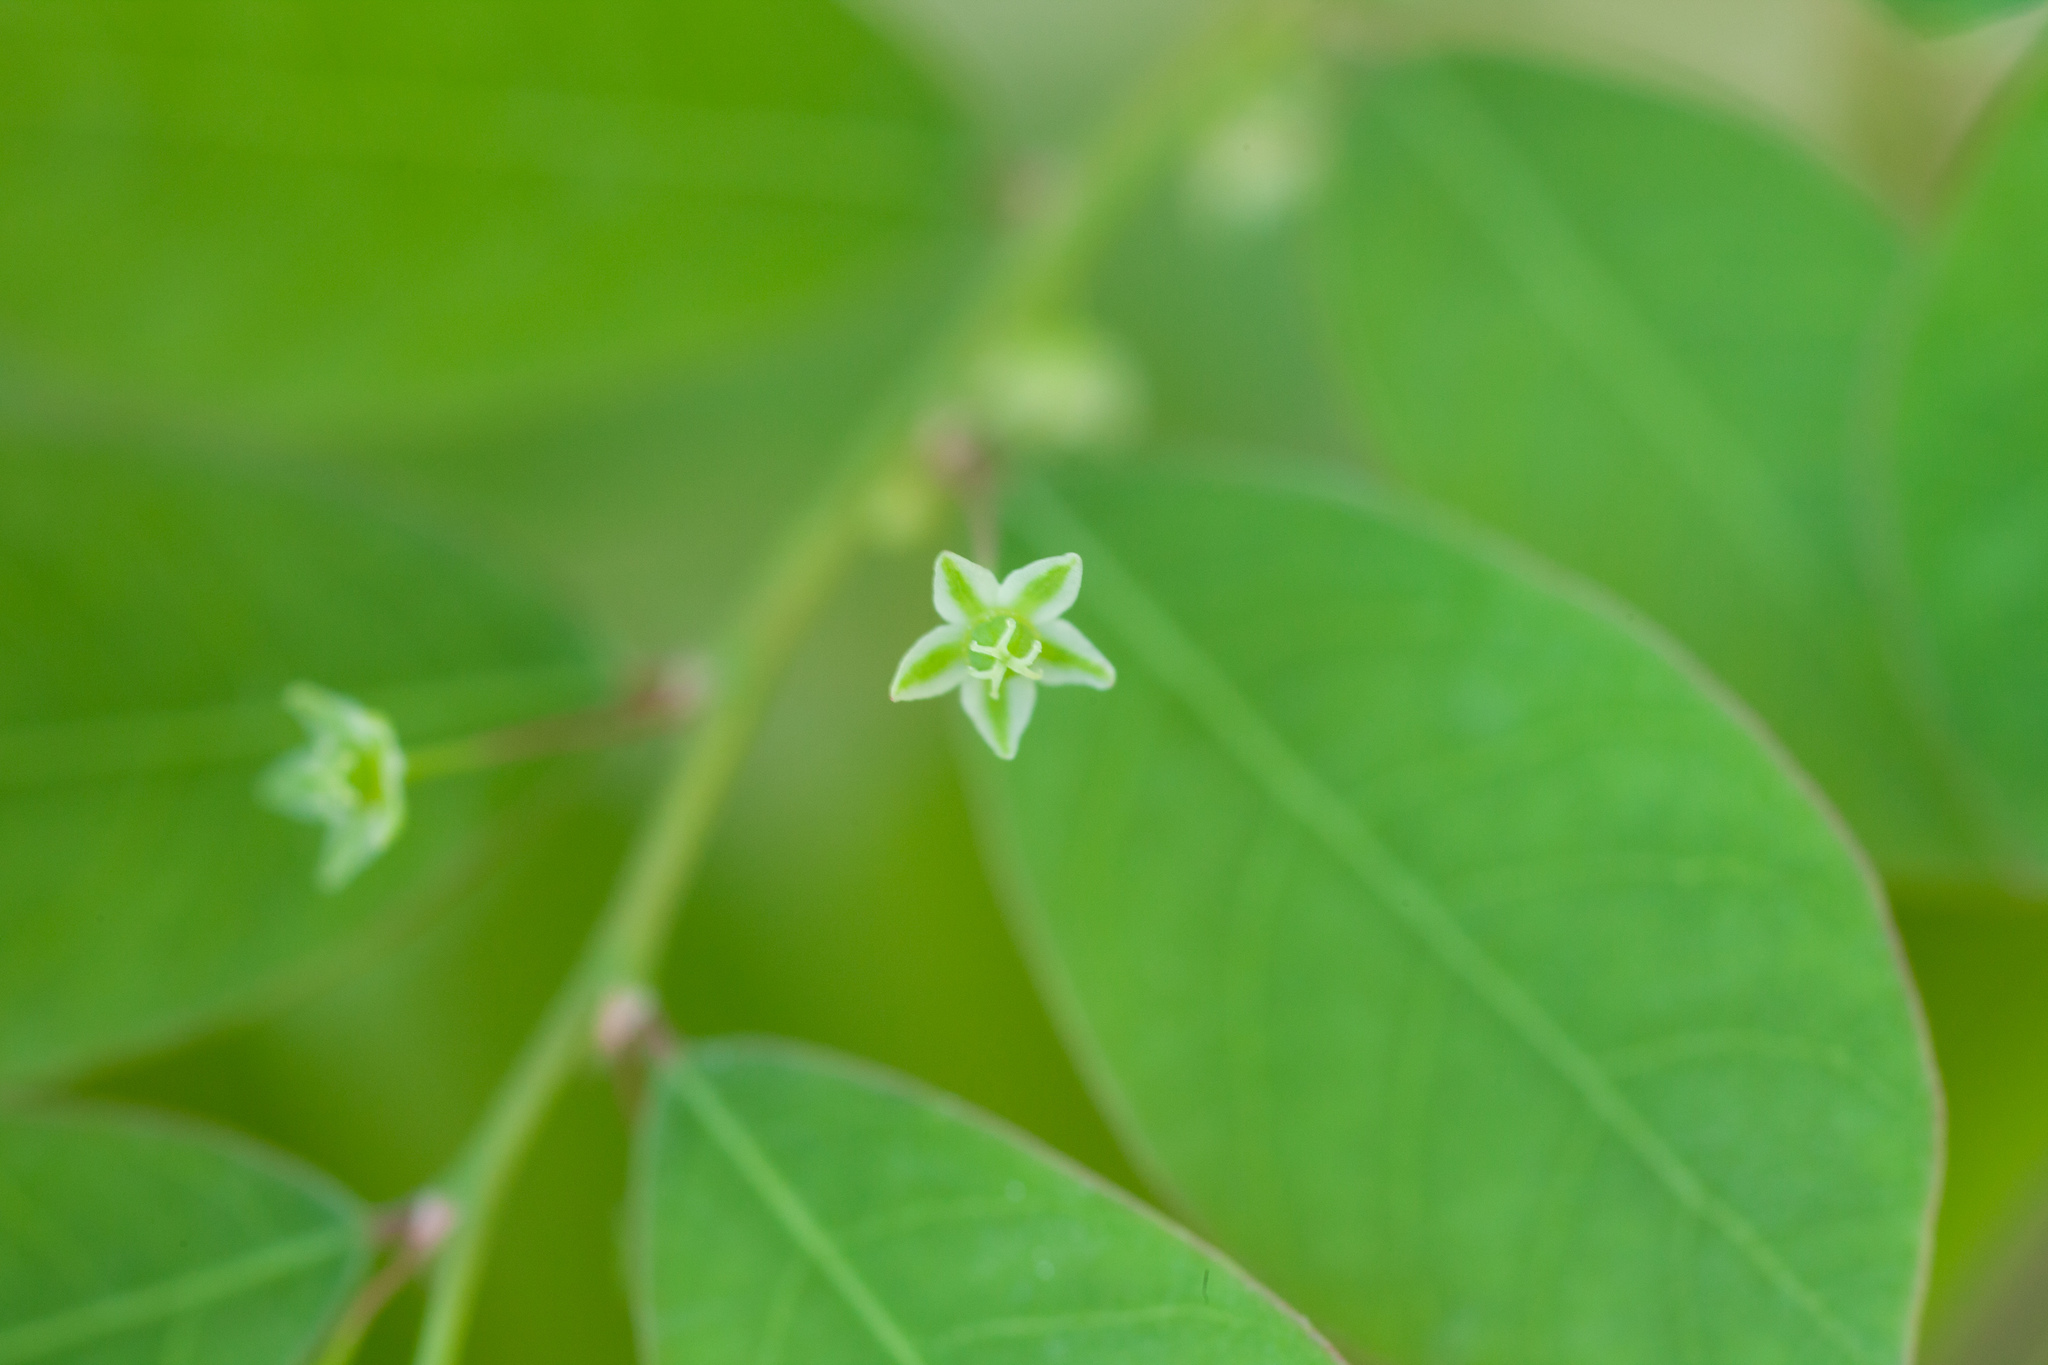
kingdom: Plantae
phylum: Tracheophyta
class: Magnoliopsida
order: Malpighiales
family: Phyllanthaceae
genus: Phyllanthus
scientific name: Phyllanthus tenellus
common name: Mascarene island leaf-flower
